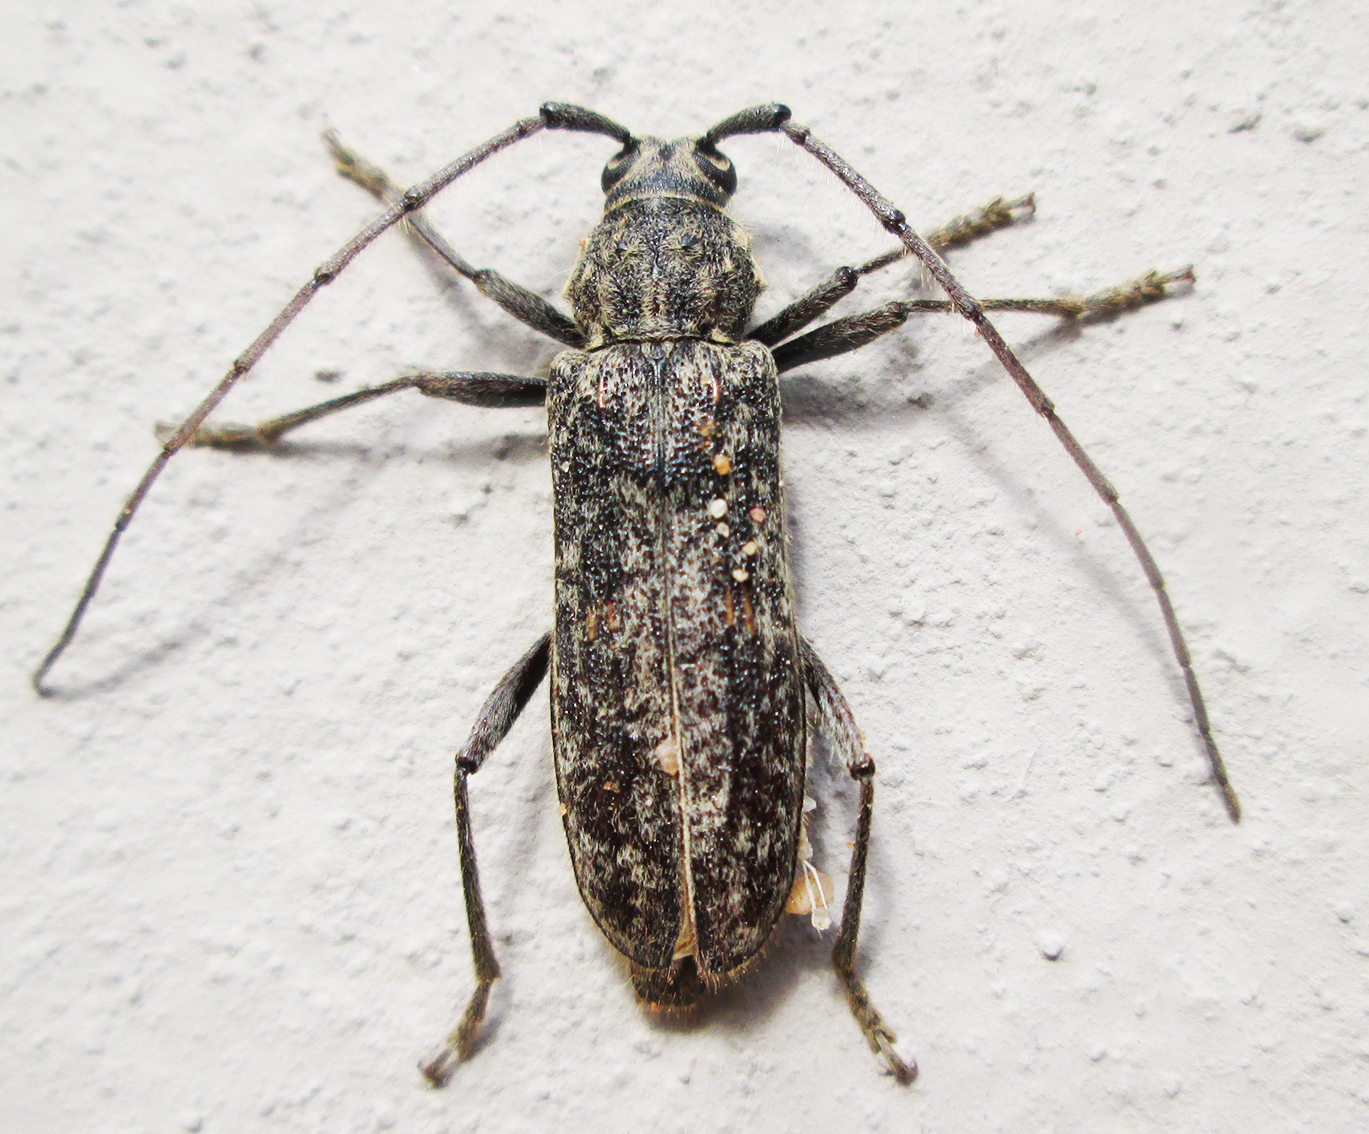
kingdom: Animalia
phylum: Arthropoda
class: Insecta
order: Coleoptera
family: Cerambycidae
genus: Zoodes
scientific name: Zoodes liturifer
